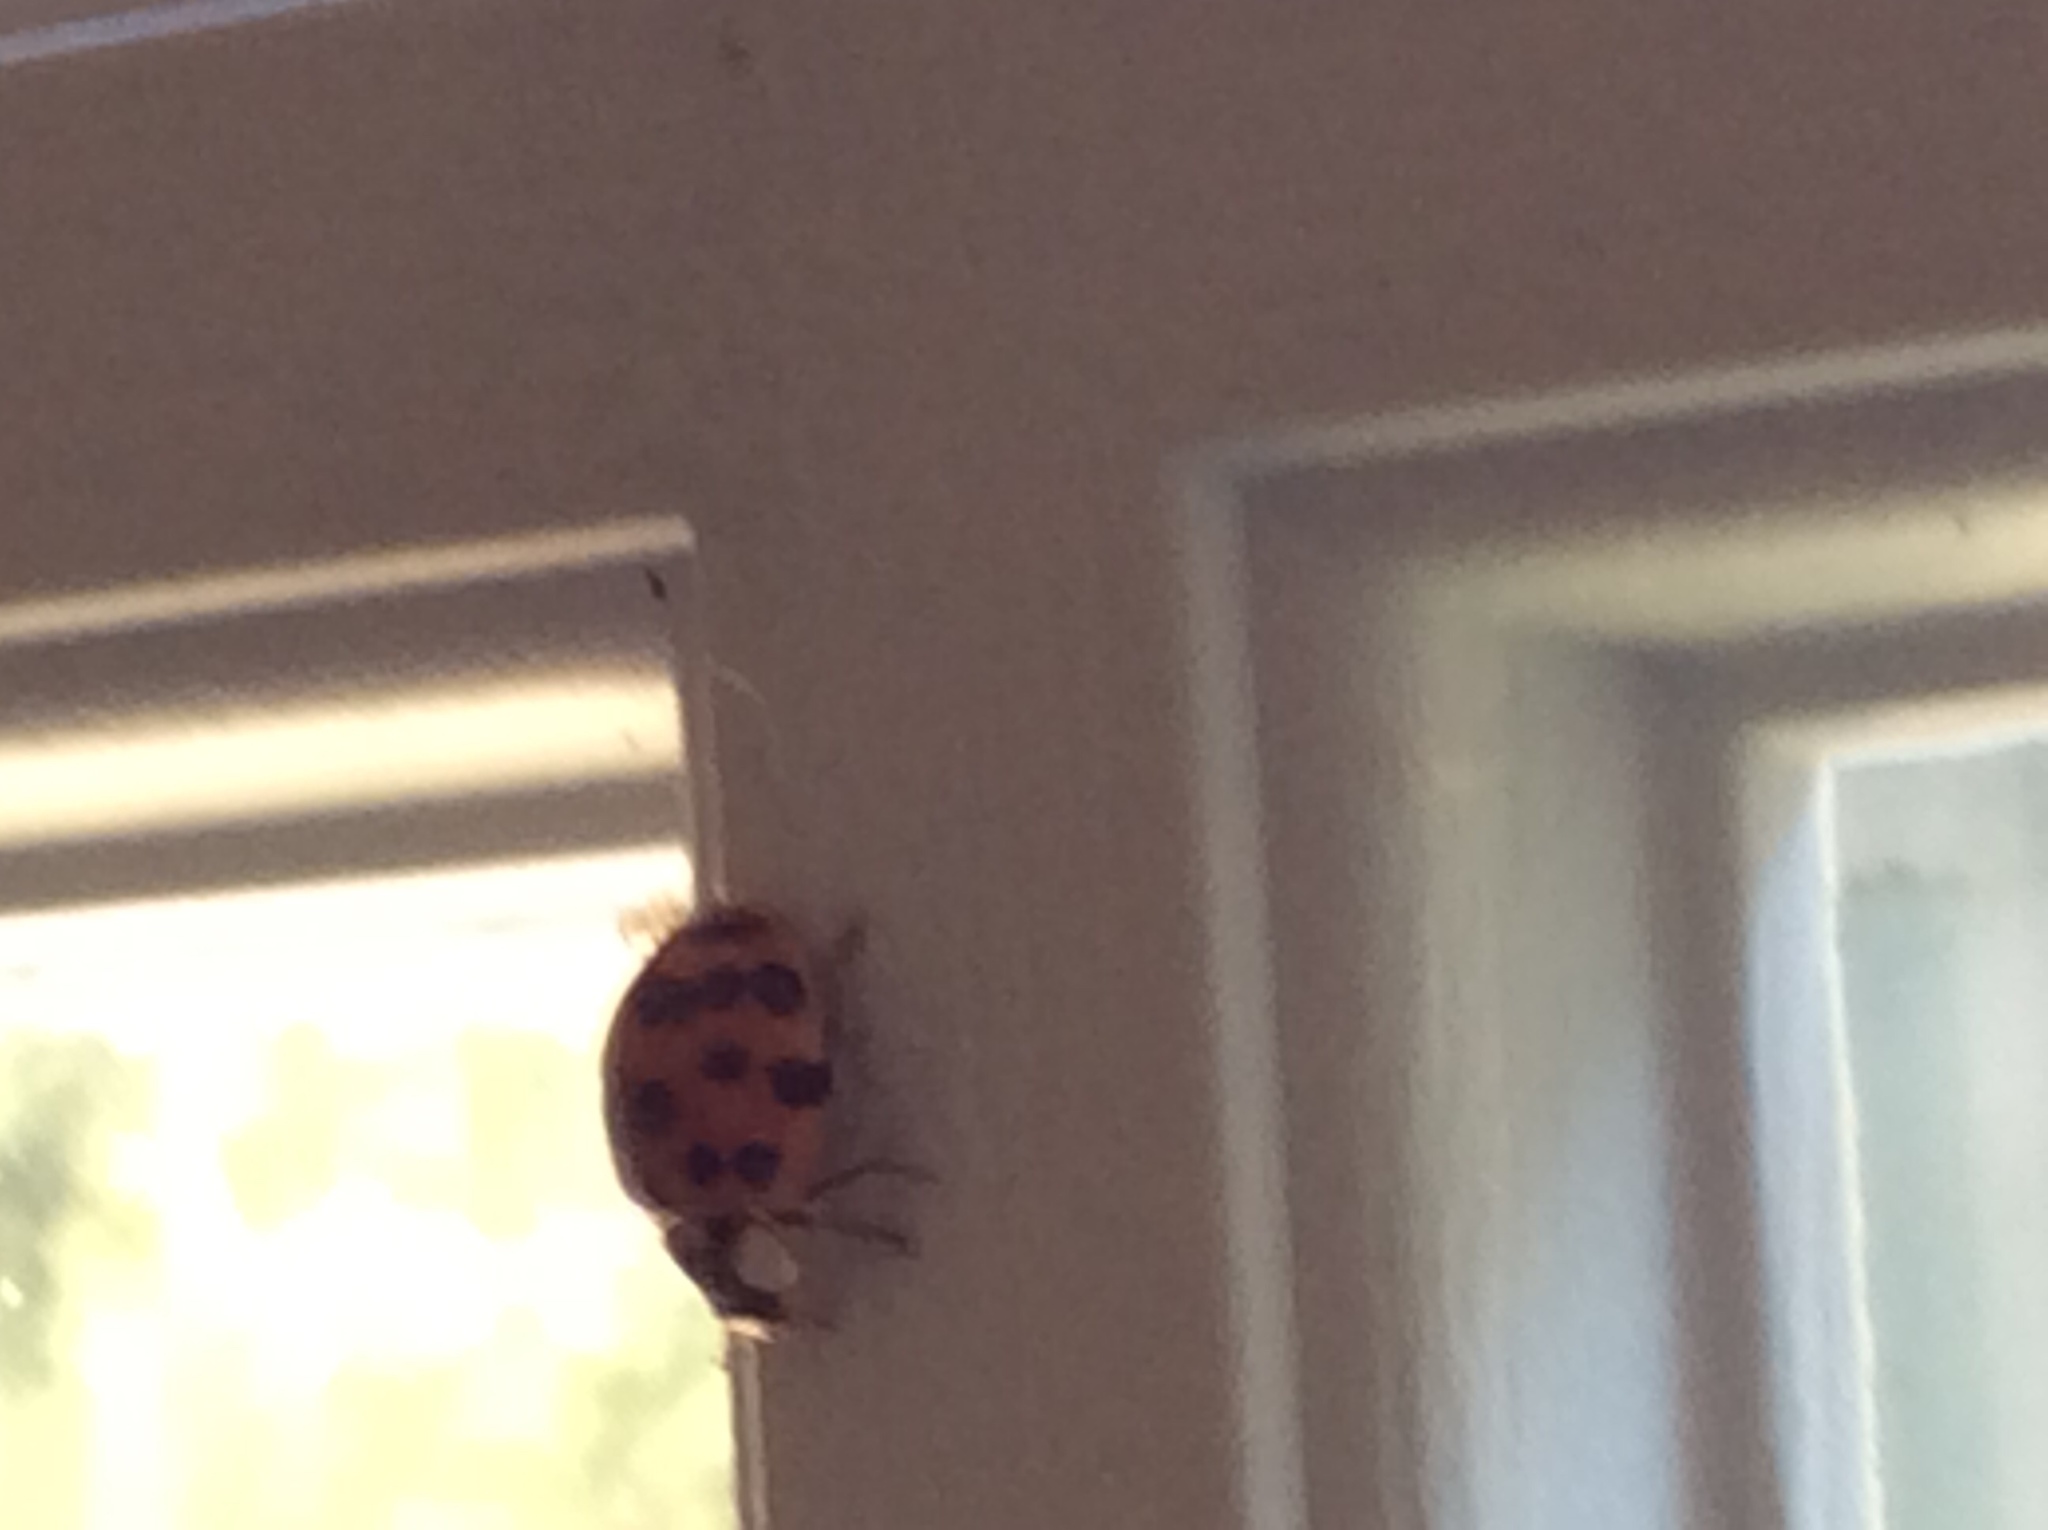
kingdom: Animalia
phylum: Arthropoda
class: Insecta
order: Coleoptera
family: Coccinellidae
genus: Harmonia
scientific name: Harmonia axyridis
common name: Harlequin ladybird
